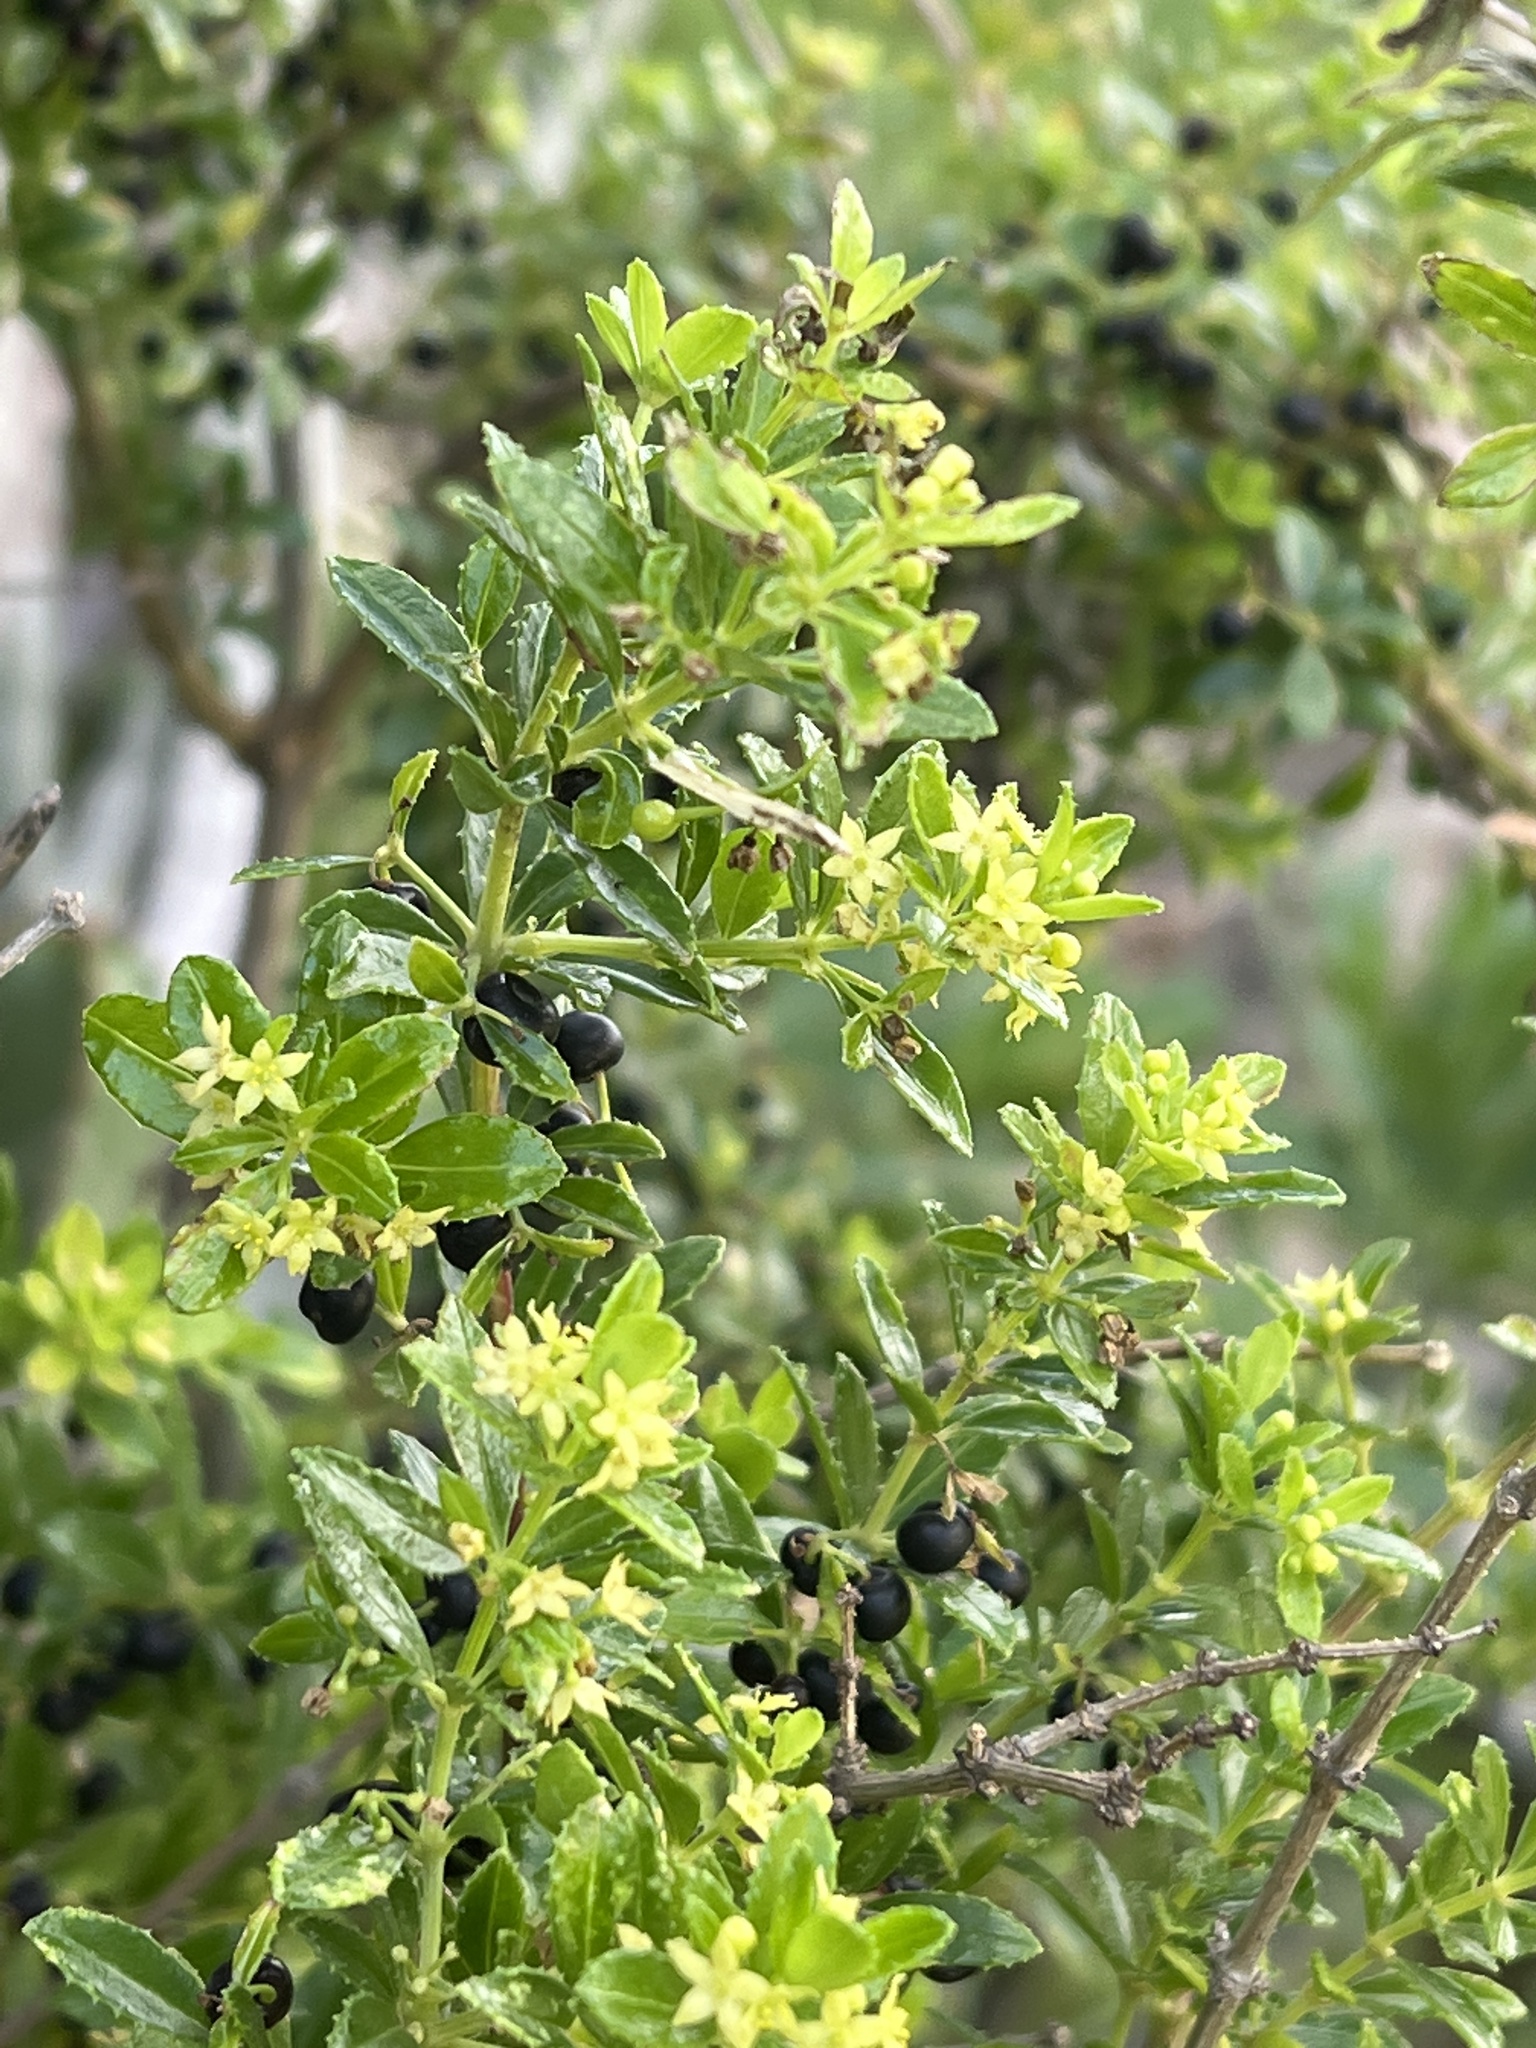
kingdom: Plantae
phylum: Tracheophyta
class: Magnoliopsida
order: Gentianales
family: Rubiaceae
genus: Rubia
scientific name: Rubia fruticosa
